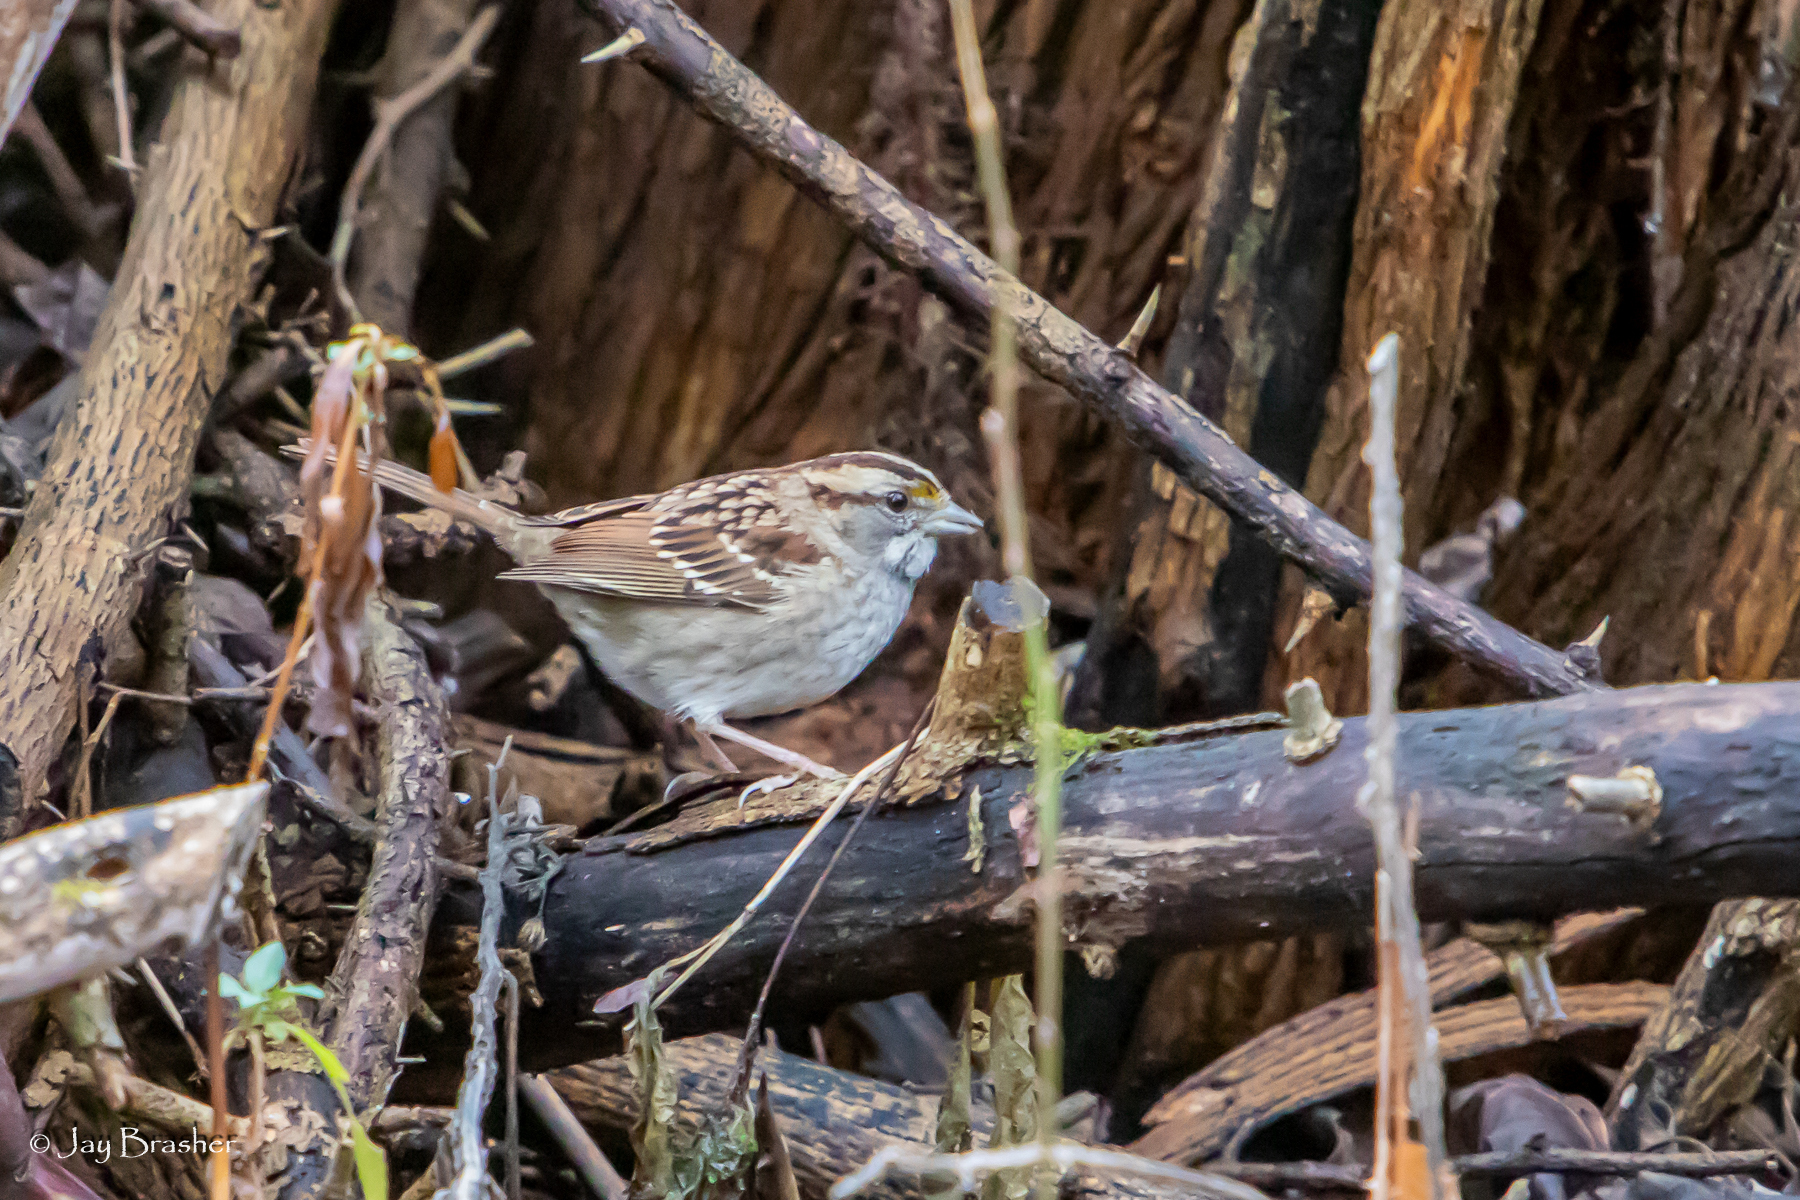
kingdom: Animalia
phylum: Chordata
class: Aves
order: Passeriformes
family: Passerellidae
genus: Zonotrichia
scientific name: Zonotrichia albicollis
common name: White-throated sparrow
